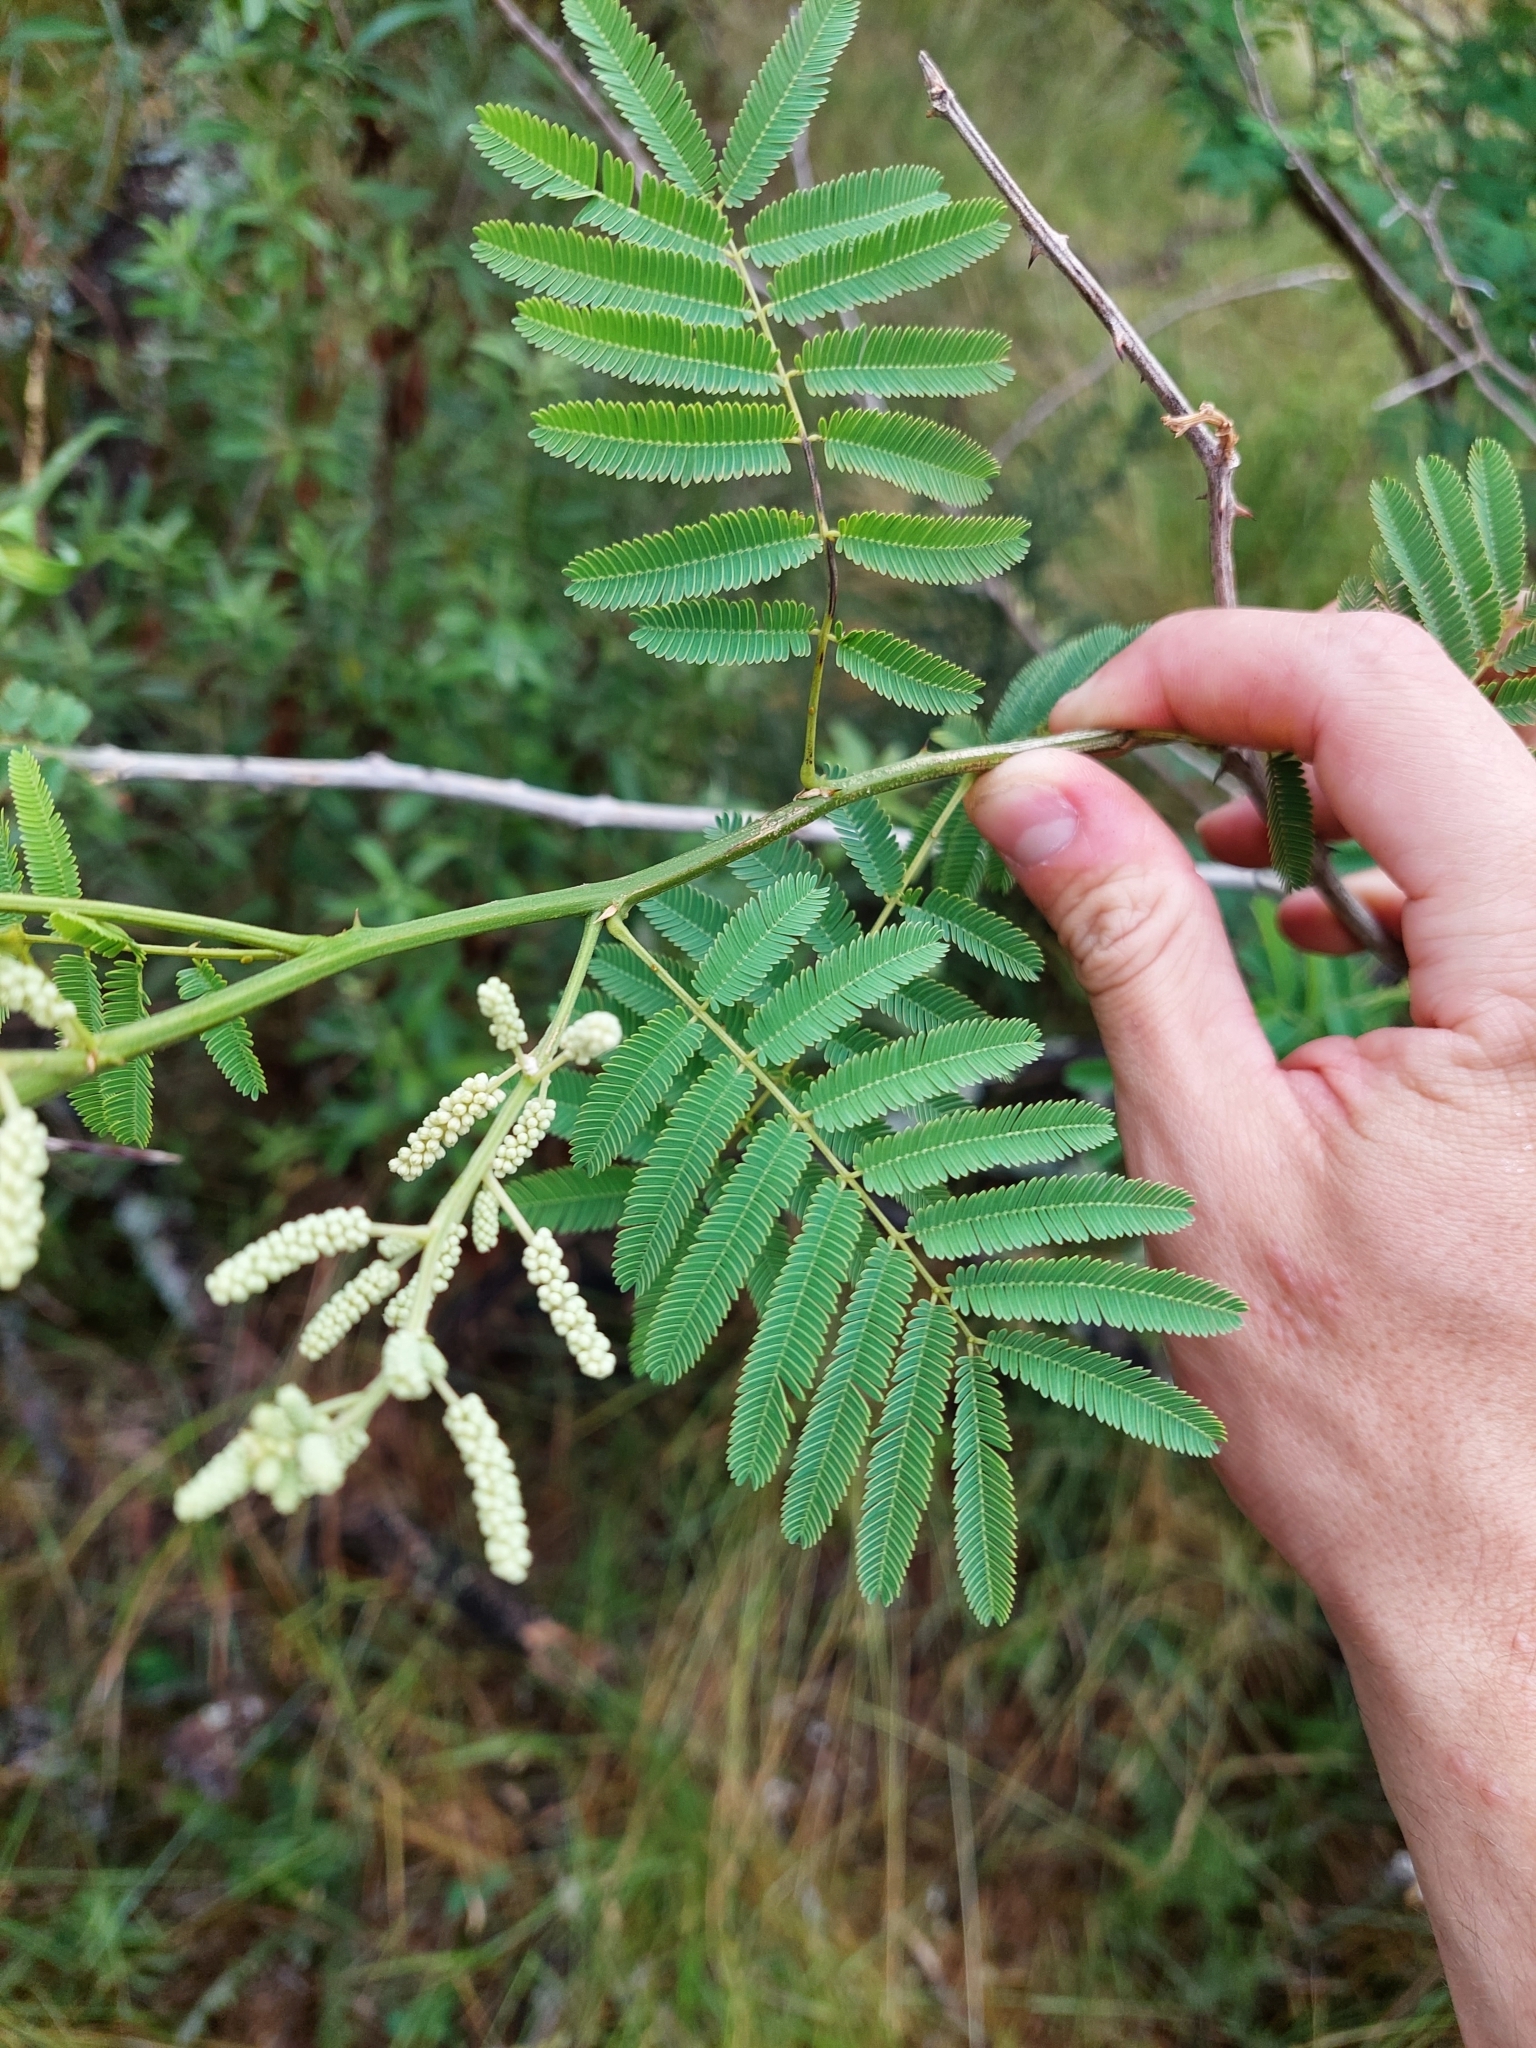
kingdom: Plantae
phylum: Tracheophyta
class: Magnoliopsida
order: Fabales
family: Fabaceae
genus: Senegalia
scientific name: Senegalia bonariensis
